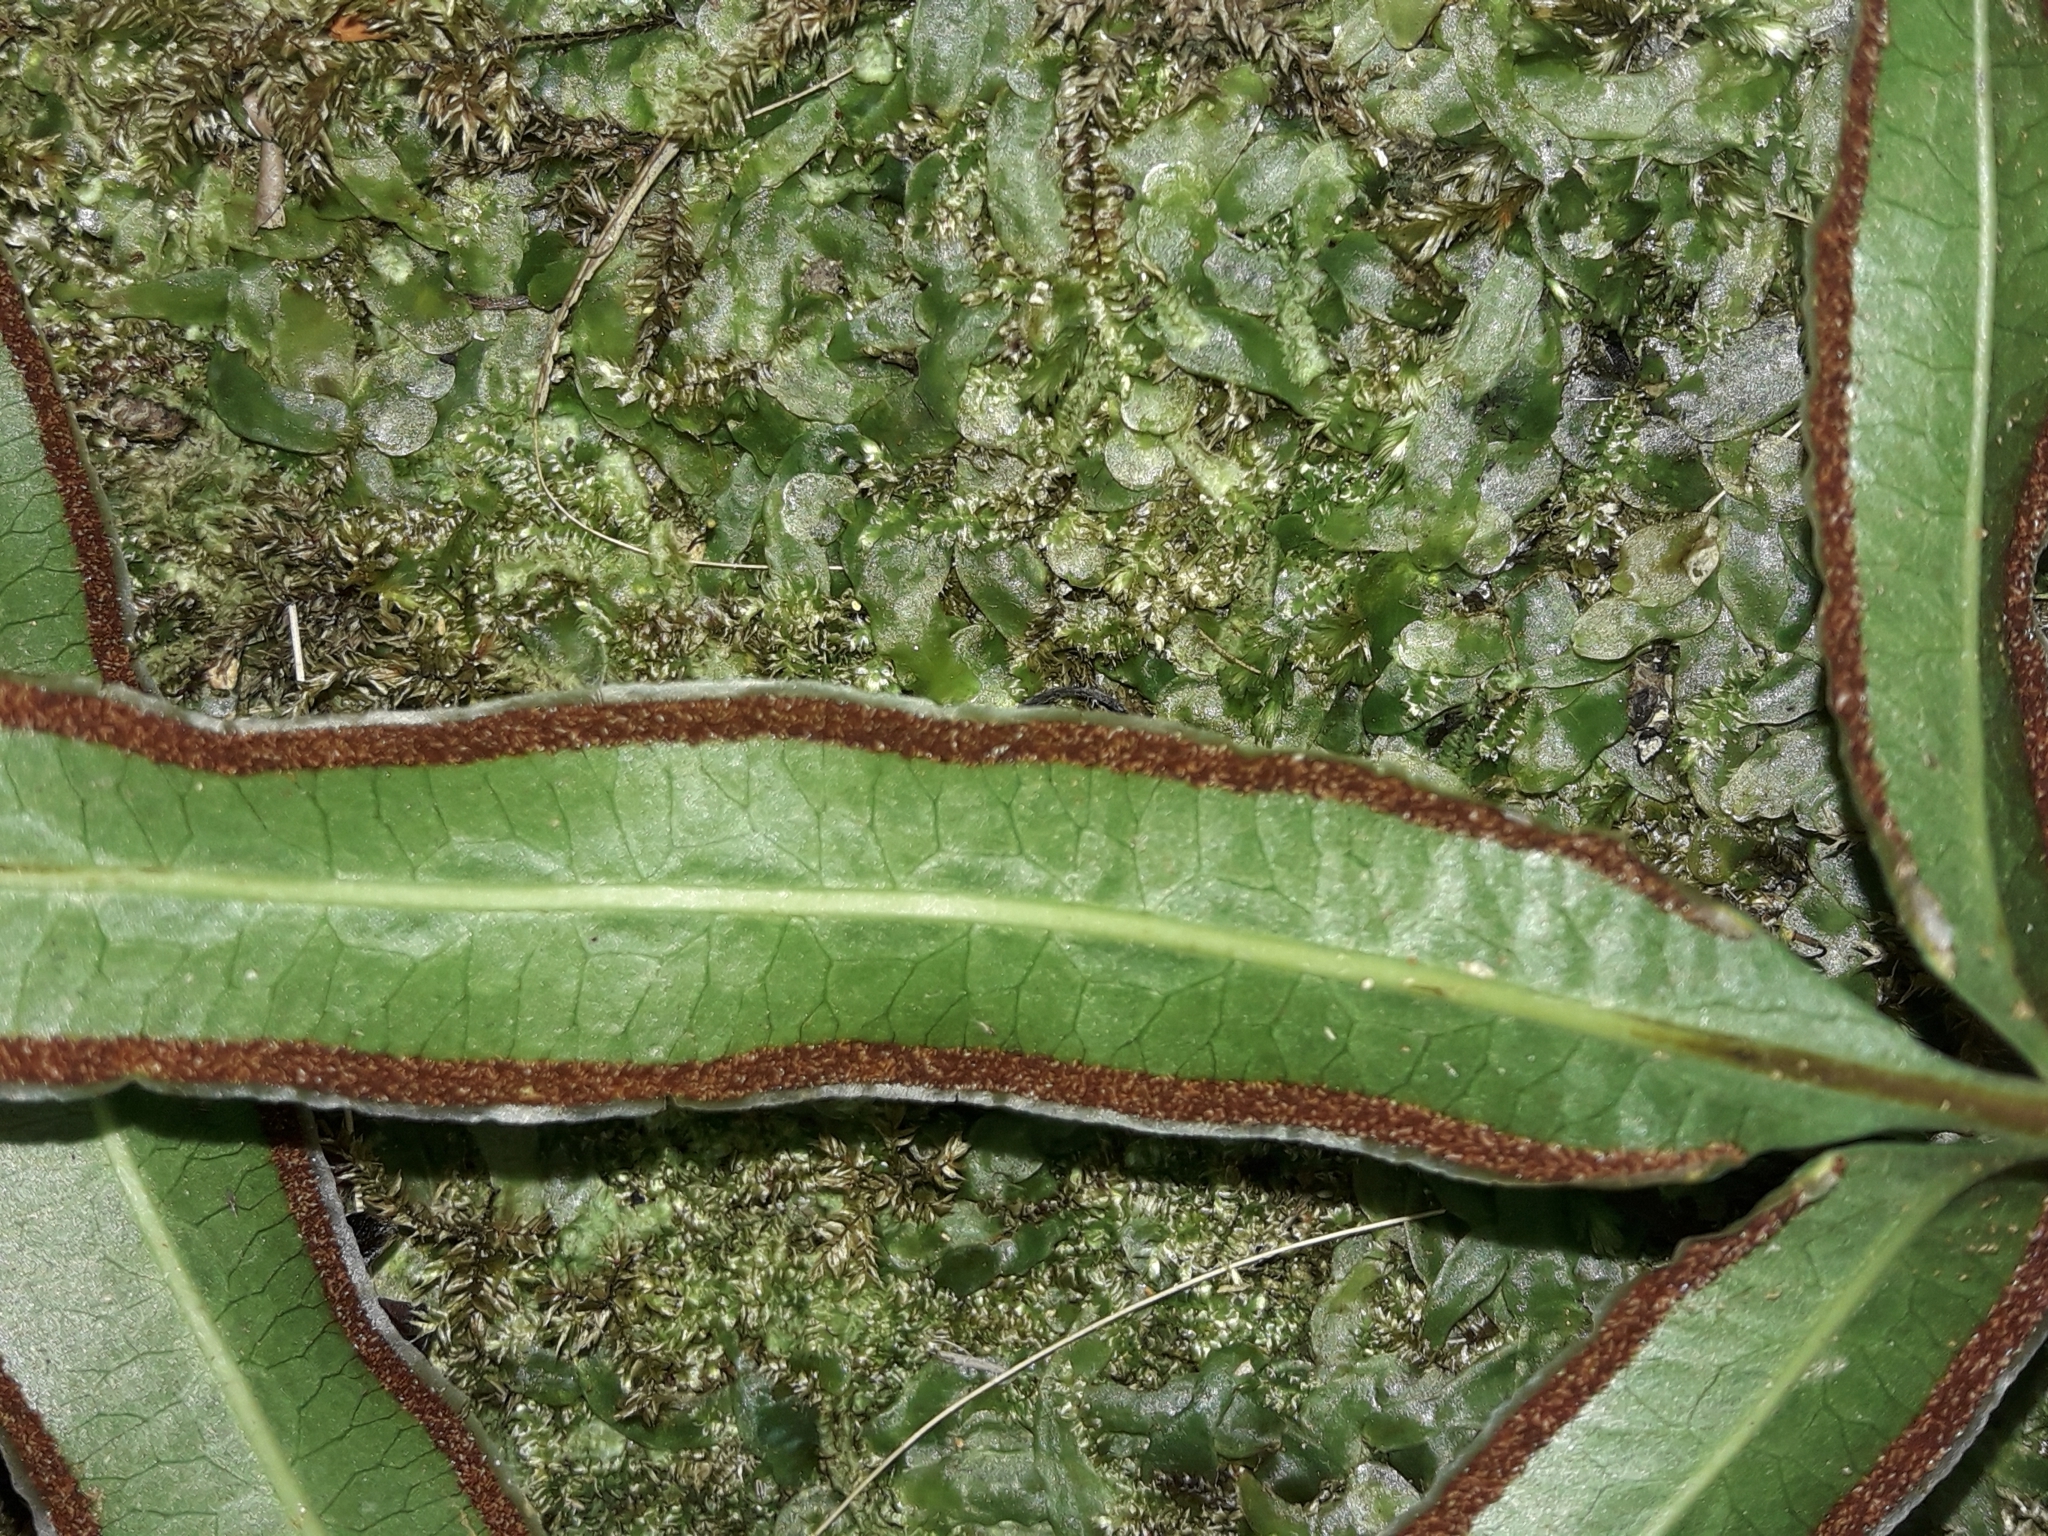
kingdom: Plantae
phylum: Tracheophyta
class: Polypodiopsida
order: Polypodiales
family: Pteridaceae
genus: Pteris
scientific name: Pteris vieillardii
